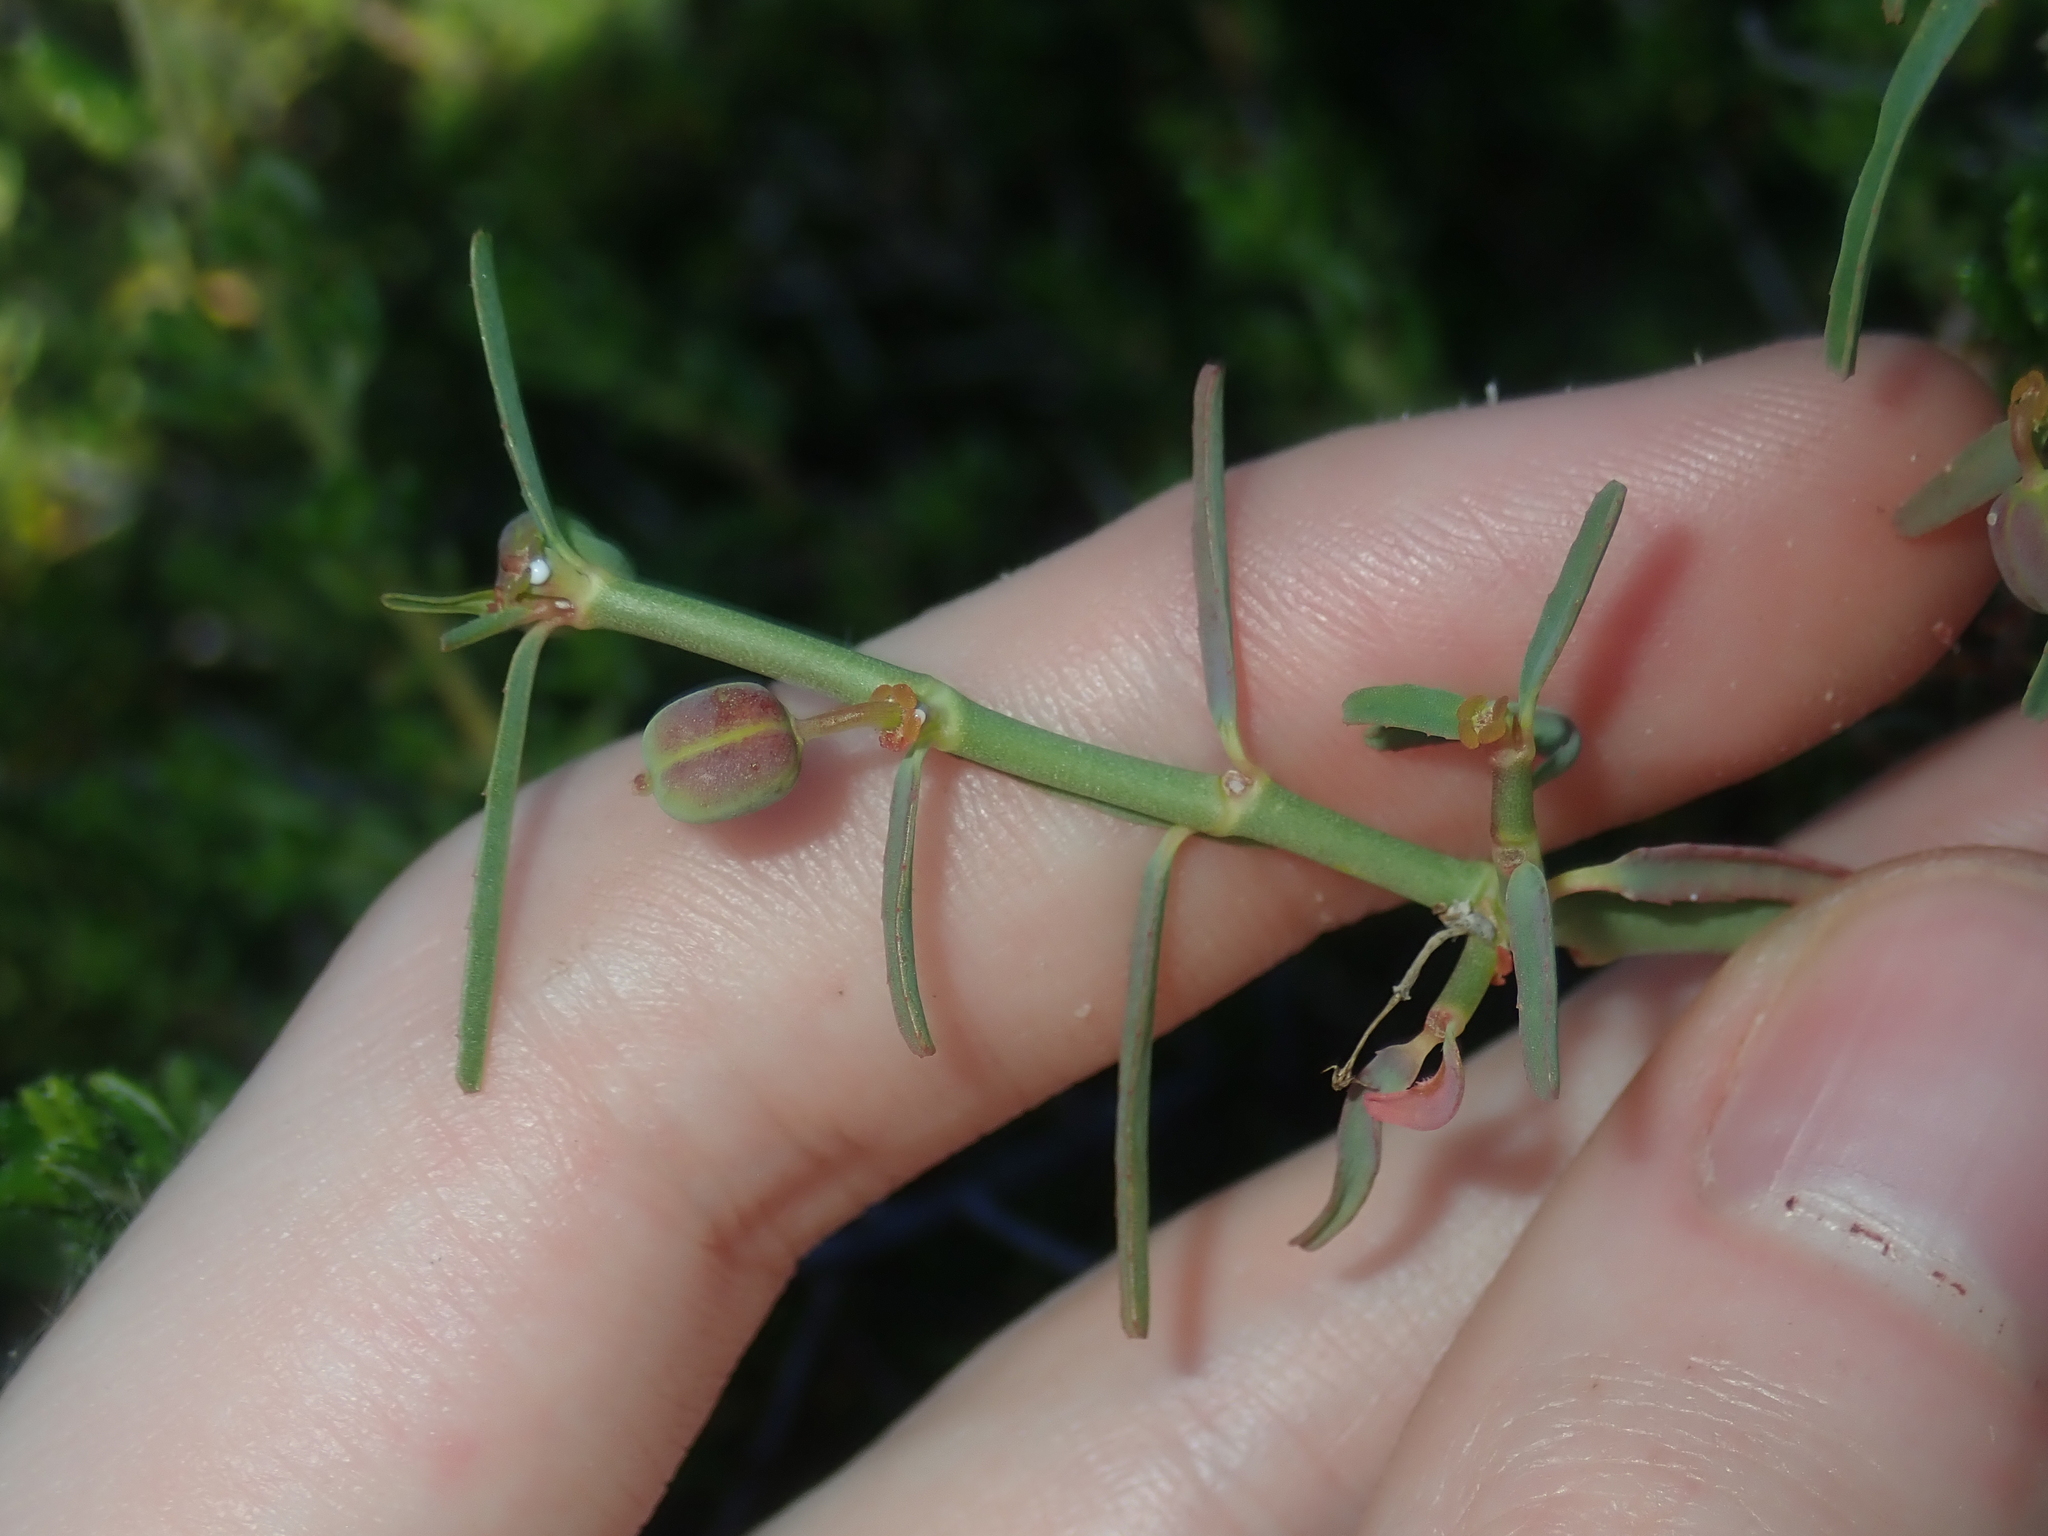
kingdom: Plantae
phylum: Tracheophyta
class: Magnoliopsida
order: Malpighiales
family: Euphorbiaceae
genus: Euphorbia
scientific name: Euphorbia tannensis
